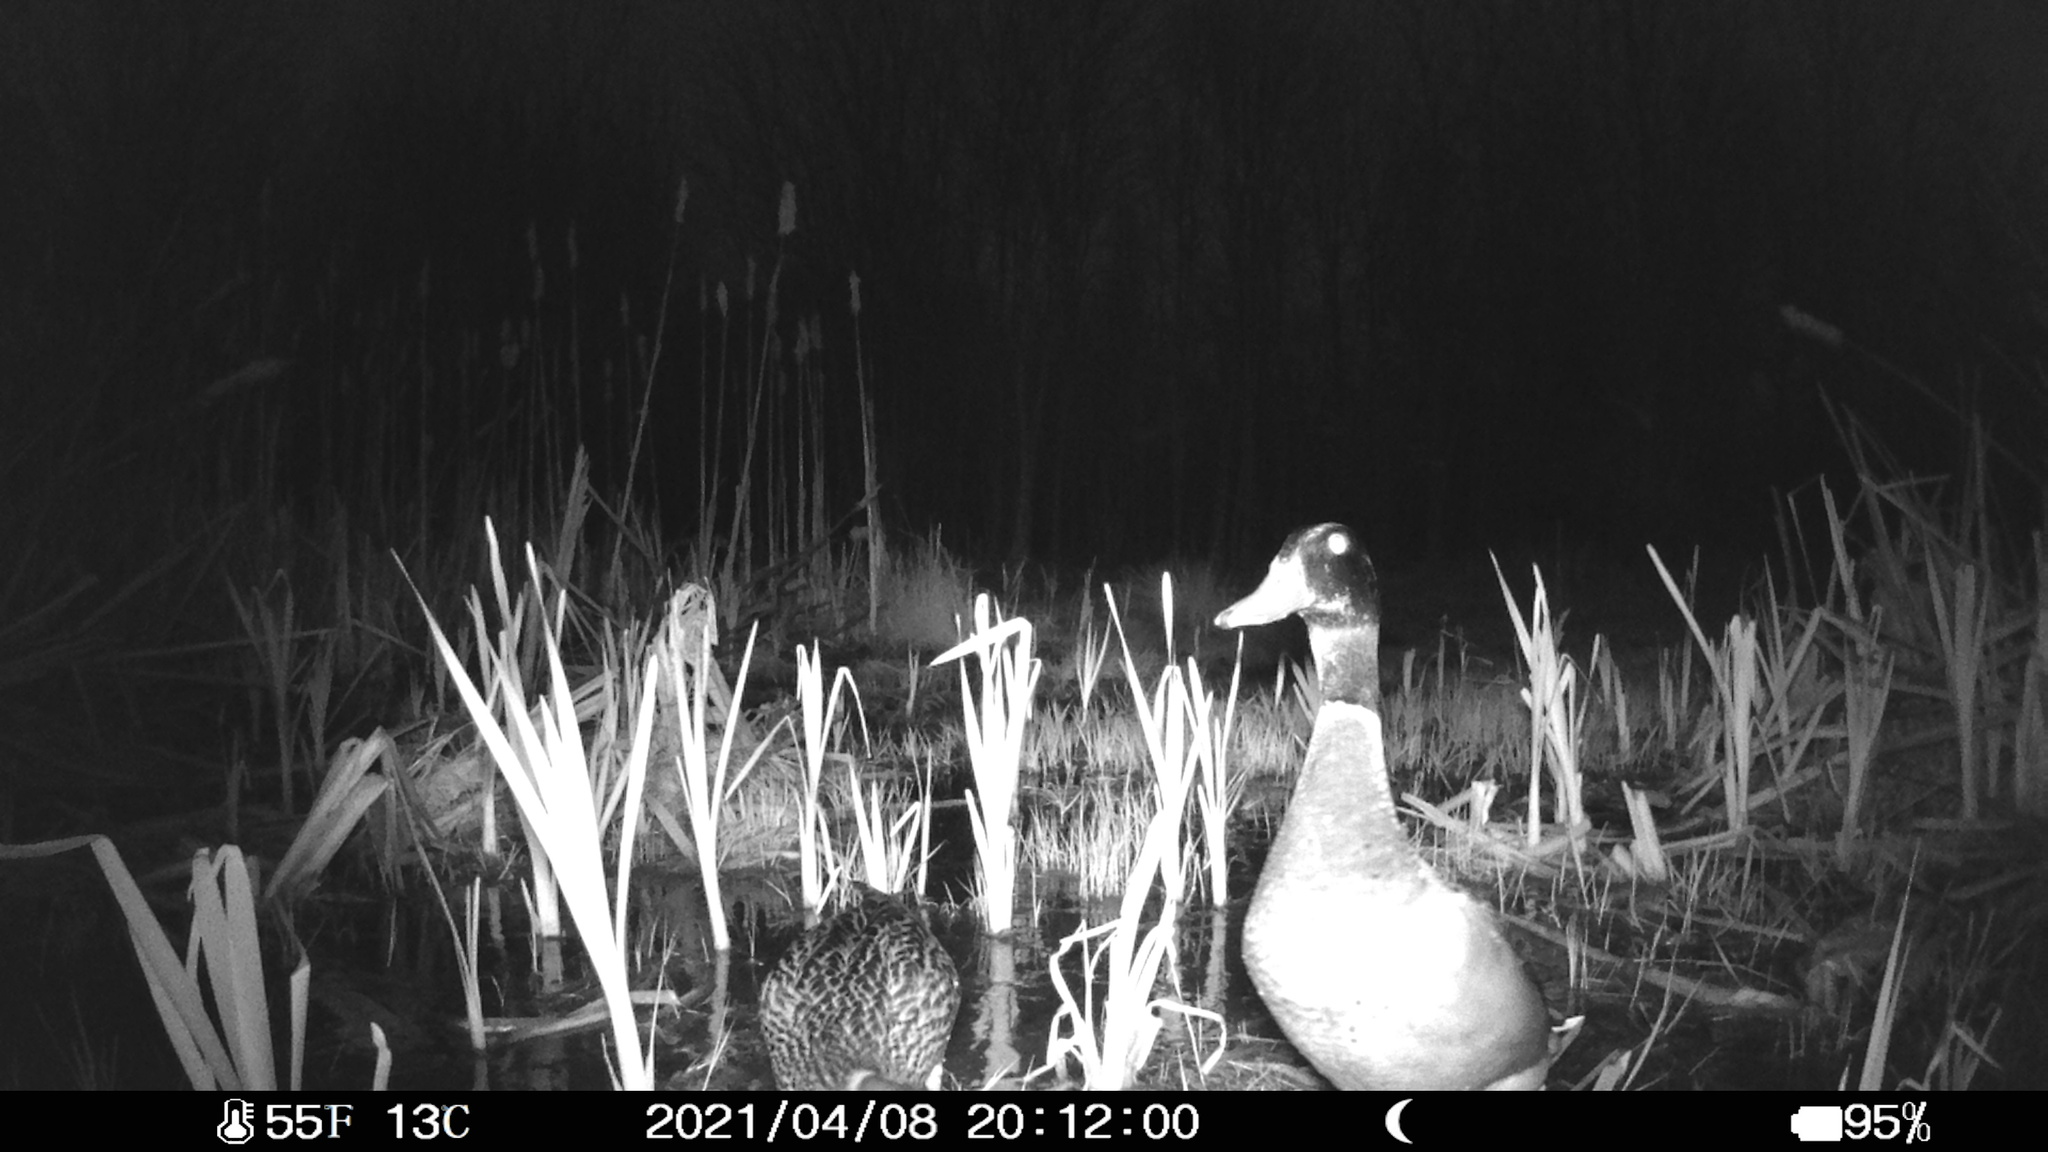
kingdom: Animalia
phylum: Chordata
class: Aves
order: Anseriformes
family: Anatidae
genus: Anas
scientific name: Anas platyrhynchos
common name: Mallard
